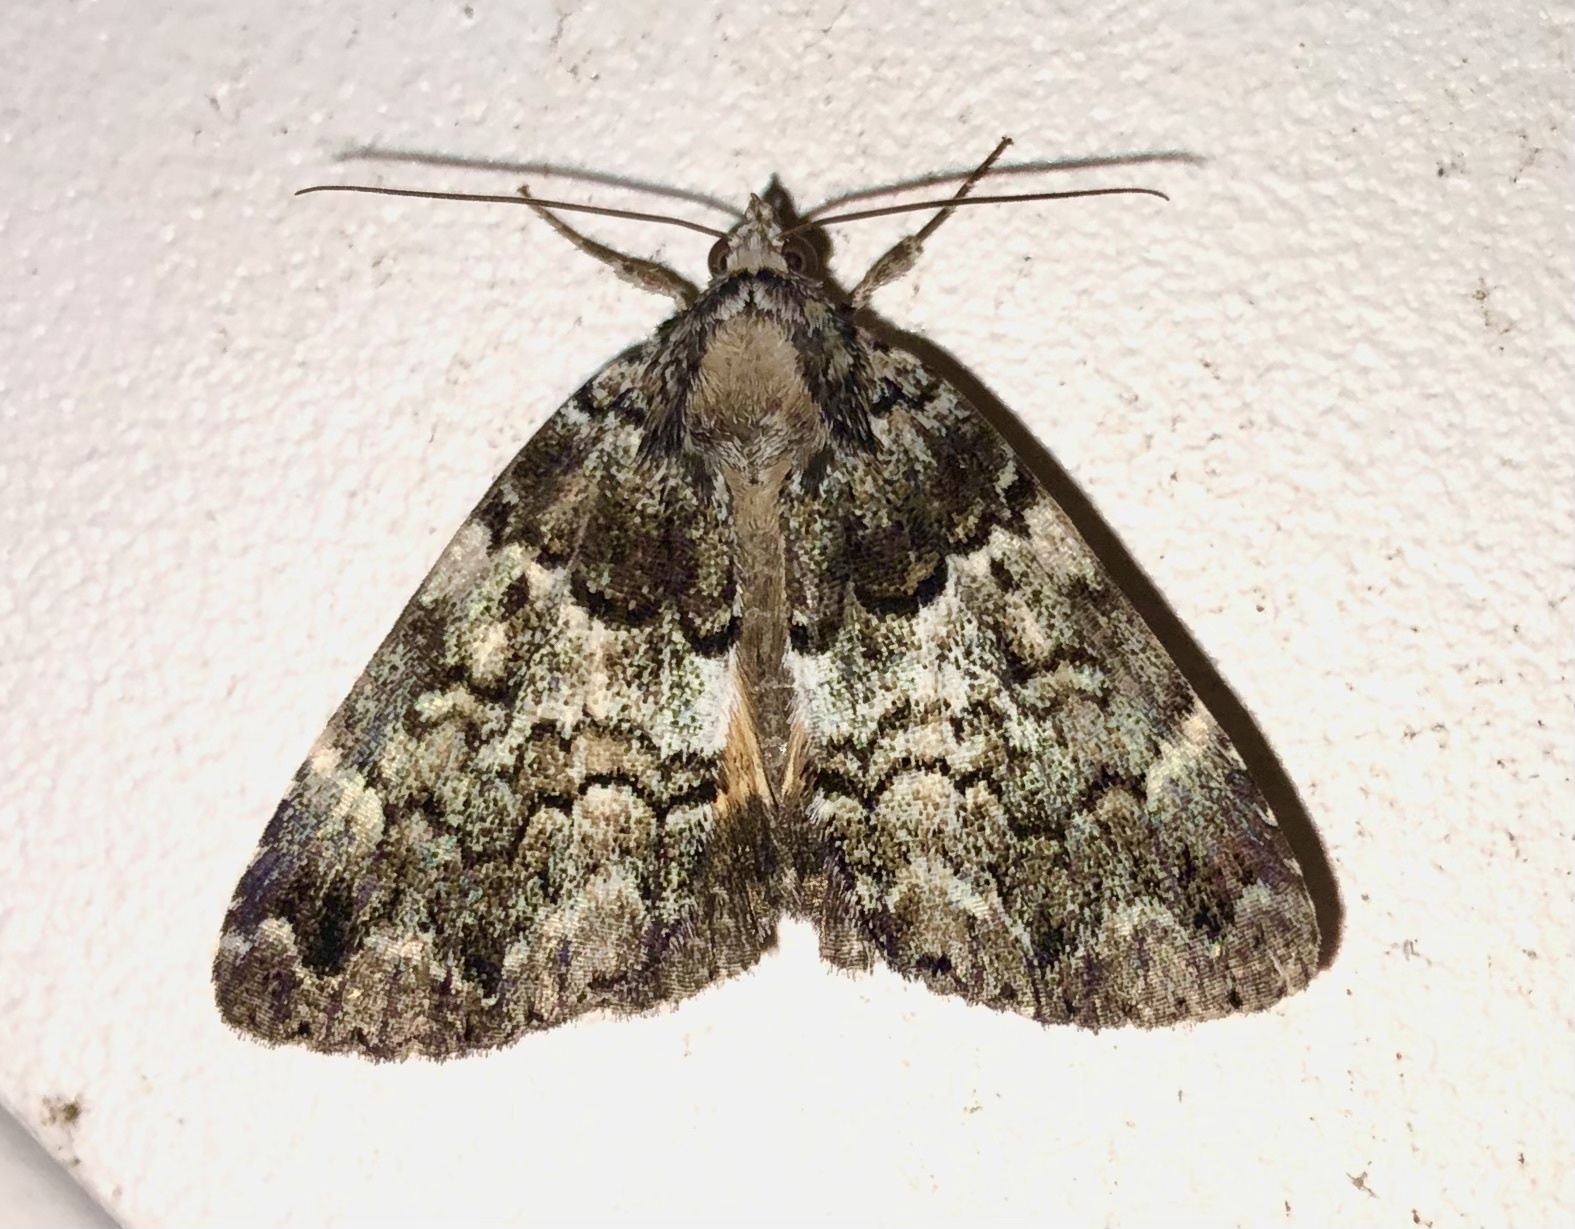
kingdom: Animalia
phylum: Arthropoda
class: Insecta
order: Lepidoptera
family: Erebidae
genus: Allotria
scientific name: Allotria elonympha
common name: False underwing
